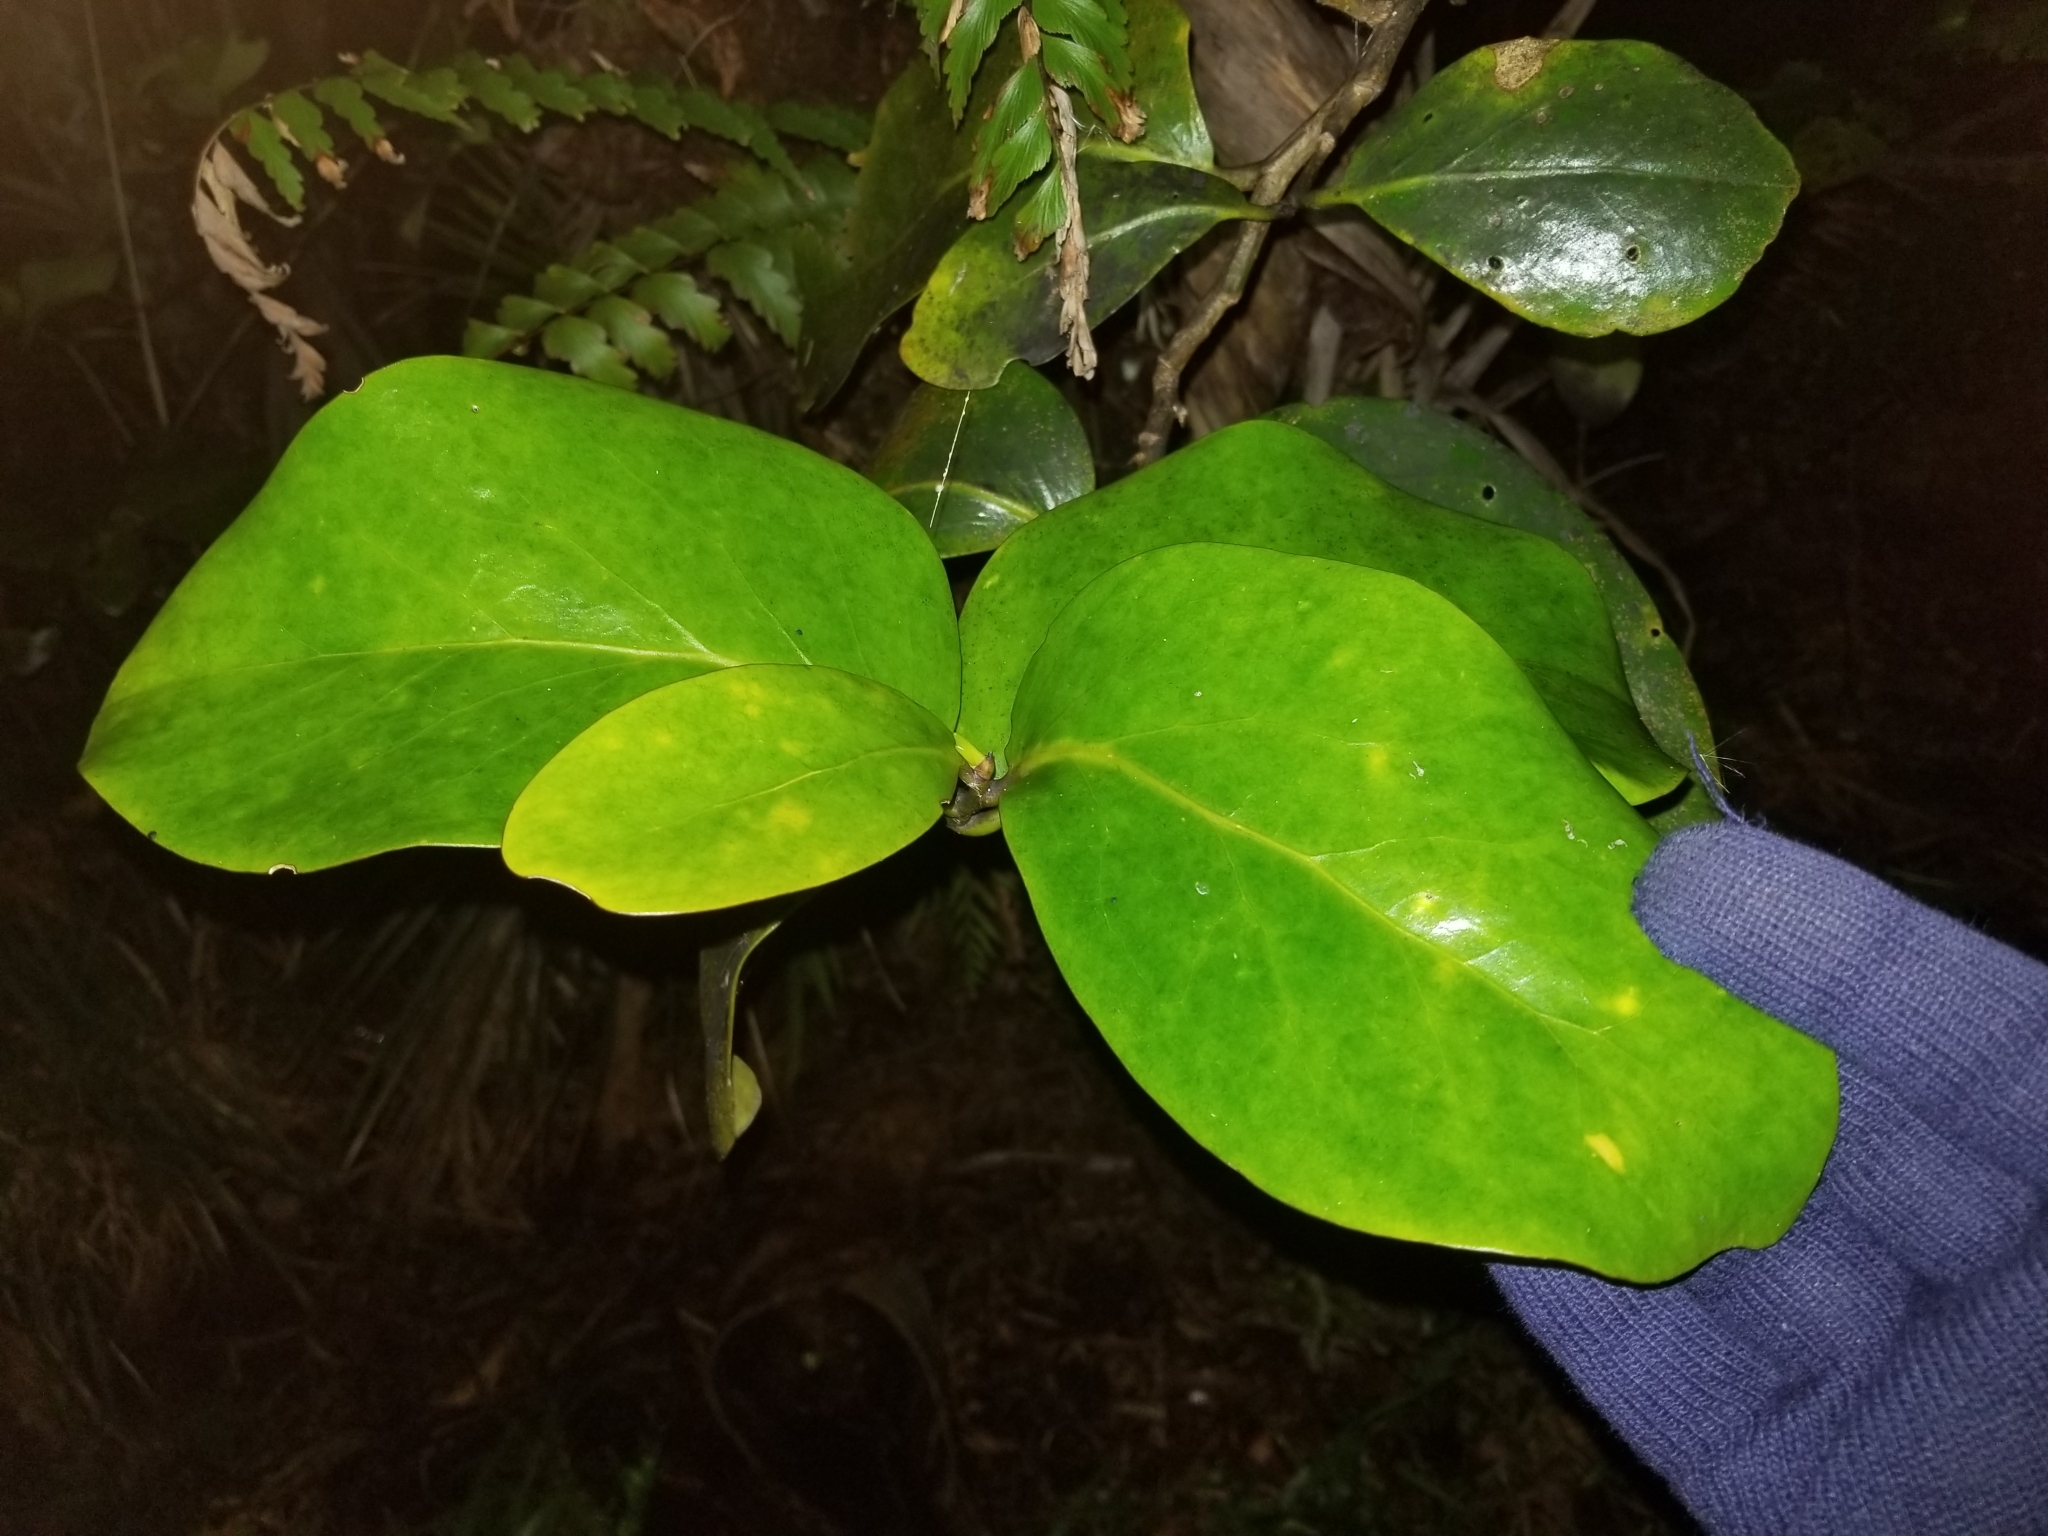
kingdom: Plantae
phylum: Tracheophyta
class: Magnoliopsida
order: Apiales
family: Griseliniaceae
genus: Griselinia
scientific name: Griselinia lucida
